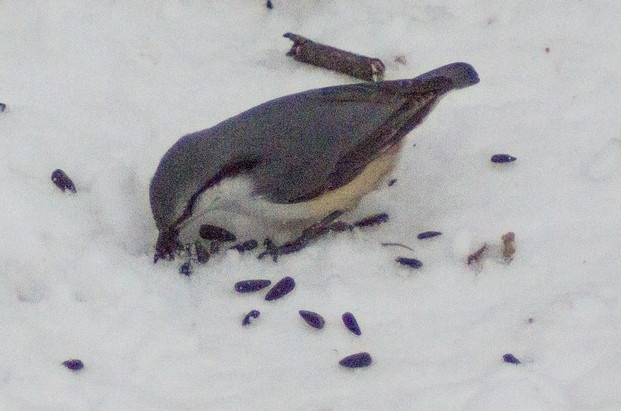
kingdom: Animalia
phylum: Chordata
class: Aves
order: Passeriformes
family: Sittidae
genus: Sitta
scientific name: Sitta europaea
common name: Eurasian nuthatch
